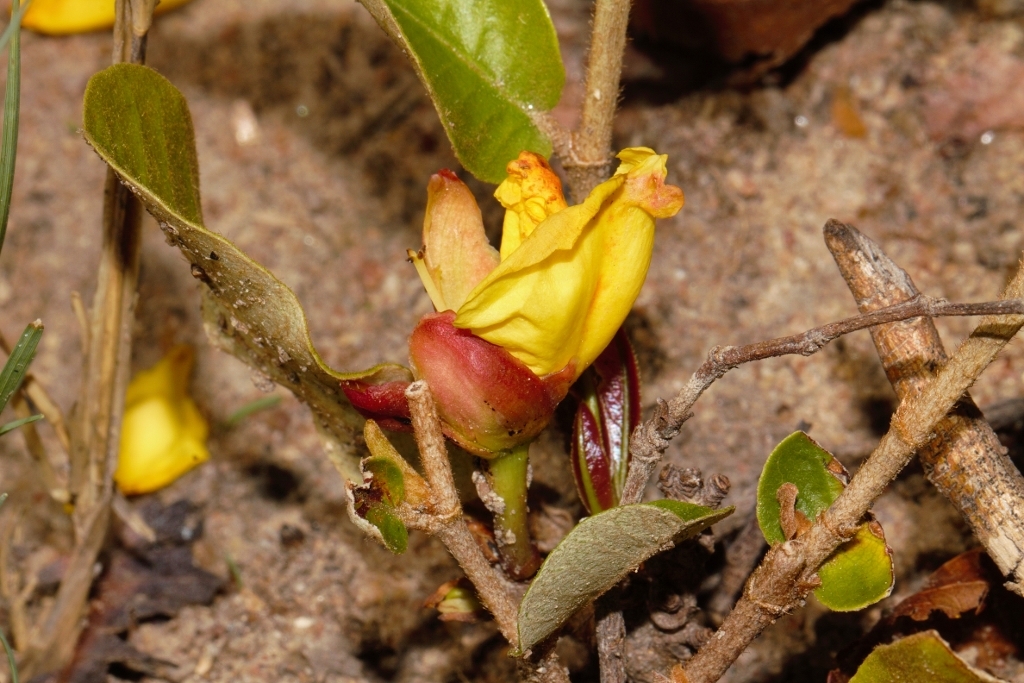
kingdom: Plantae
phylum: Tracheophyta
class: Magnoliopsida
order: Malpighiales
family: Ochnaceae
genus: Ochna
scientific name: Ochna macrocalyx
